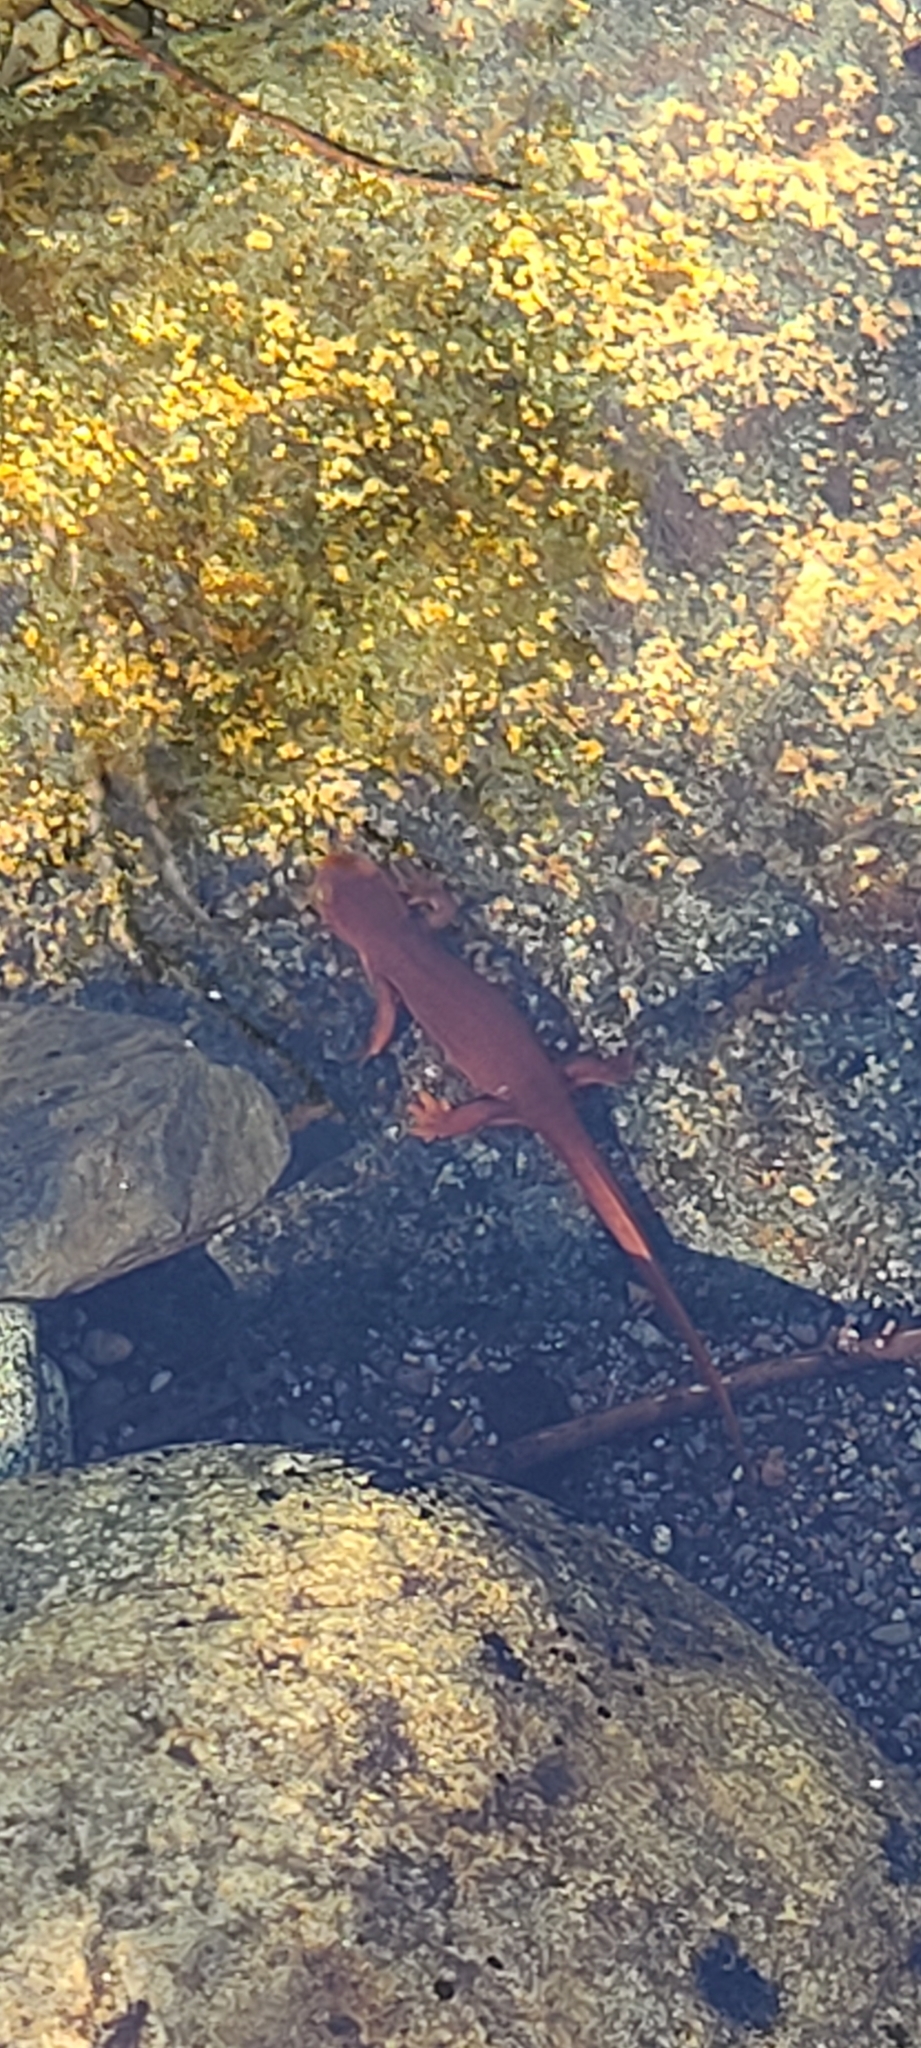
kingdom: Animalia
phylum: Chordata
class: Amphibia
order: Caudata
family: Salamandridae
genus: Taricha
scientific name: Taricha sierrae
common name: Sierra newt
